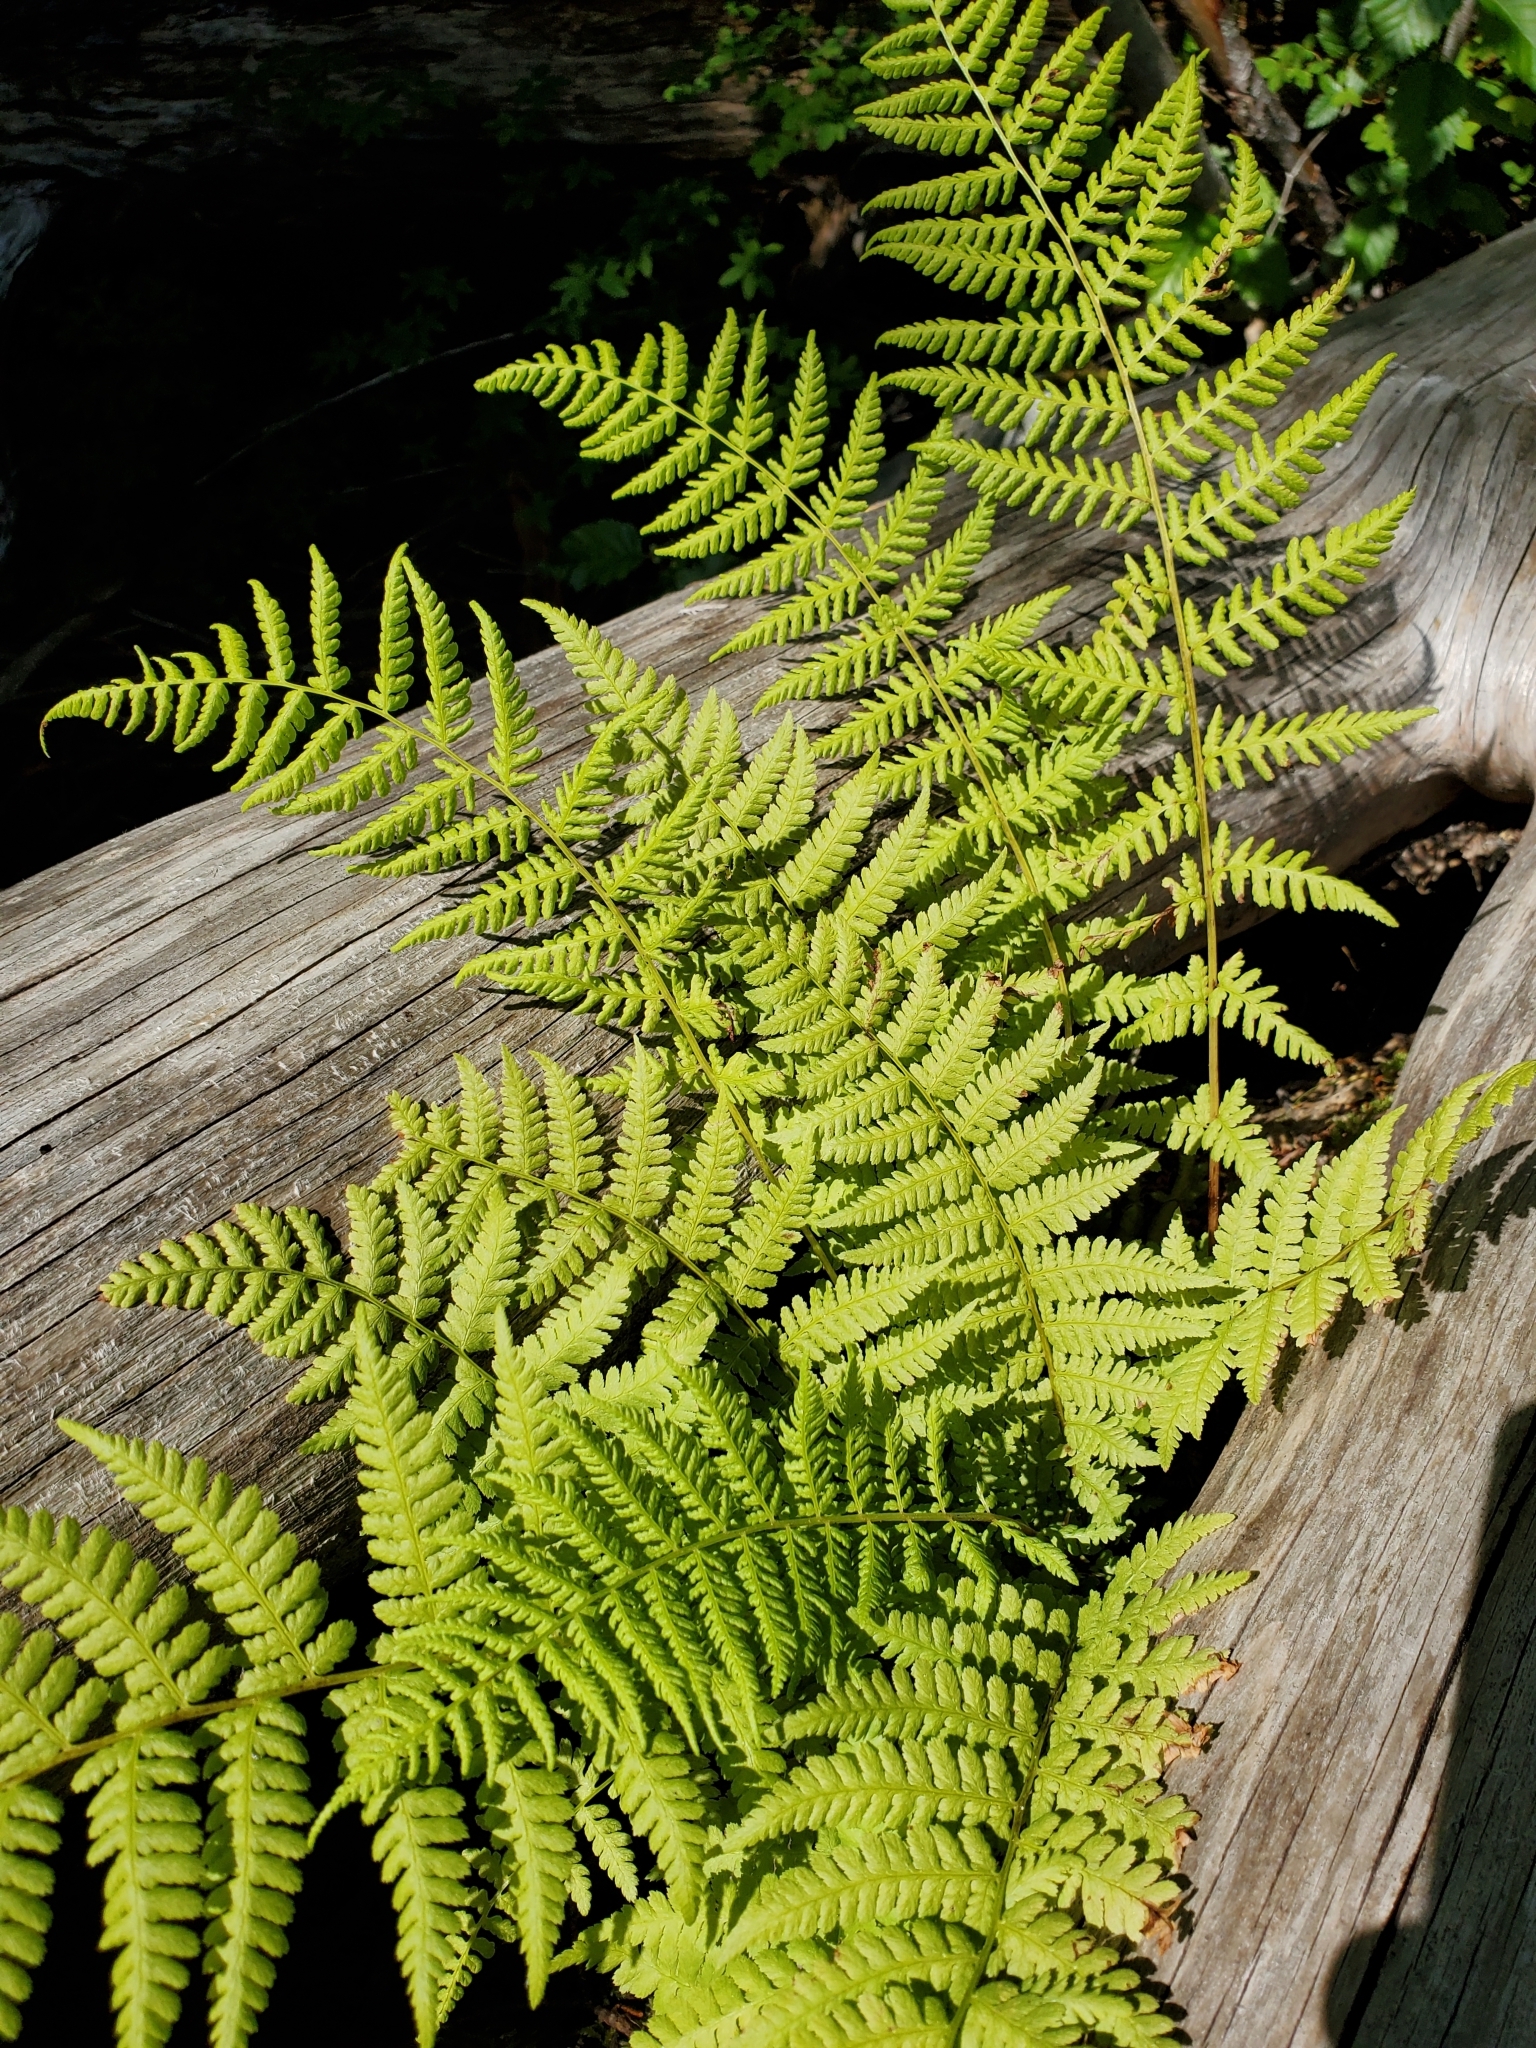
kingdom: Plantae
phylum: Tracheophyta
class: Polypodiopsida
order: Polypodiales
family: Athyriaceae
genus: Athyrium
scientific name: Athyrium filix-femina
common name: Lady fern
